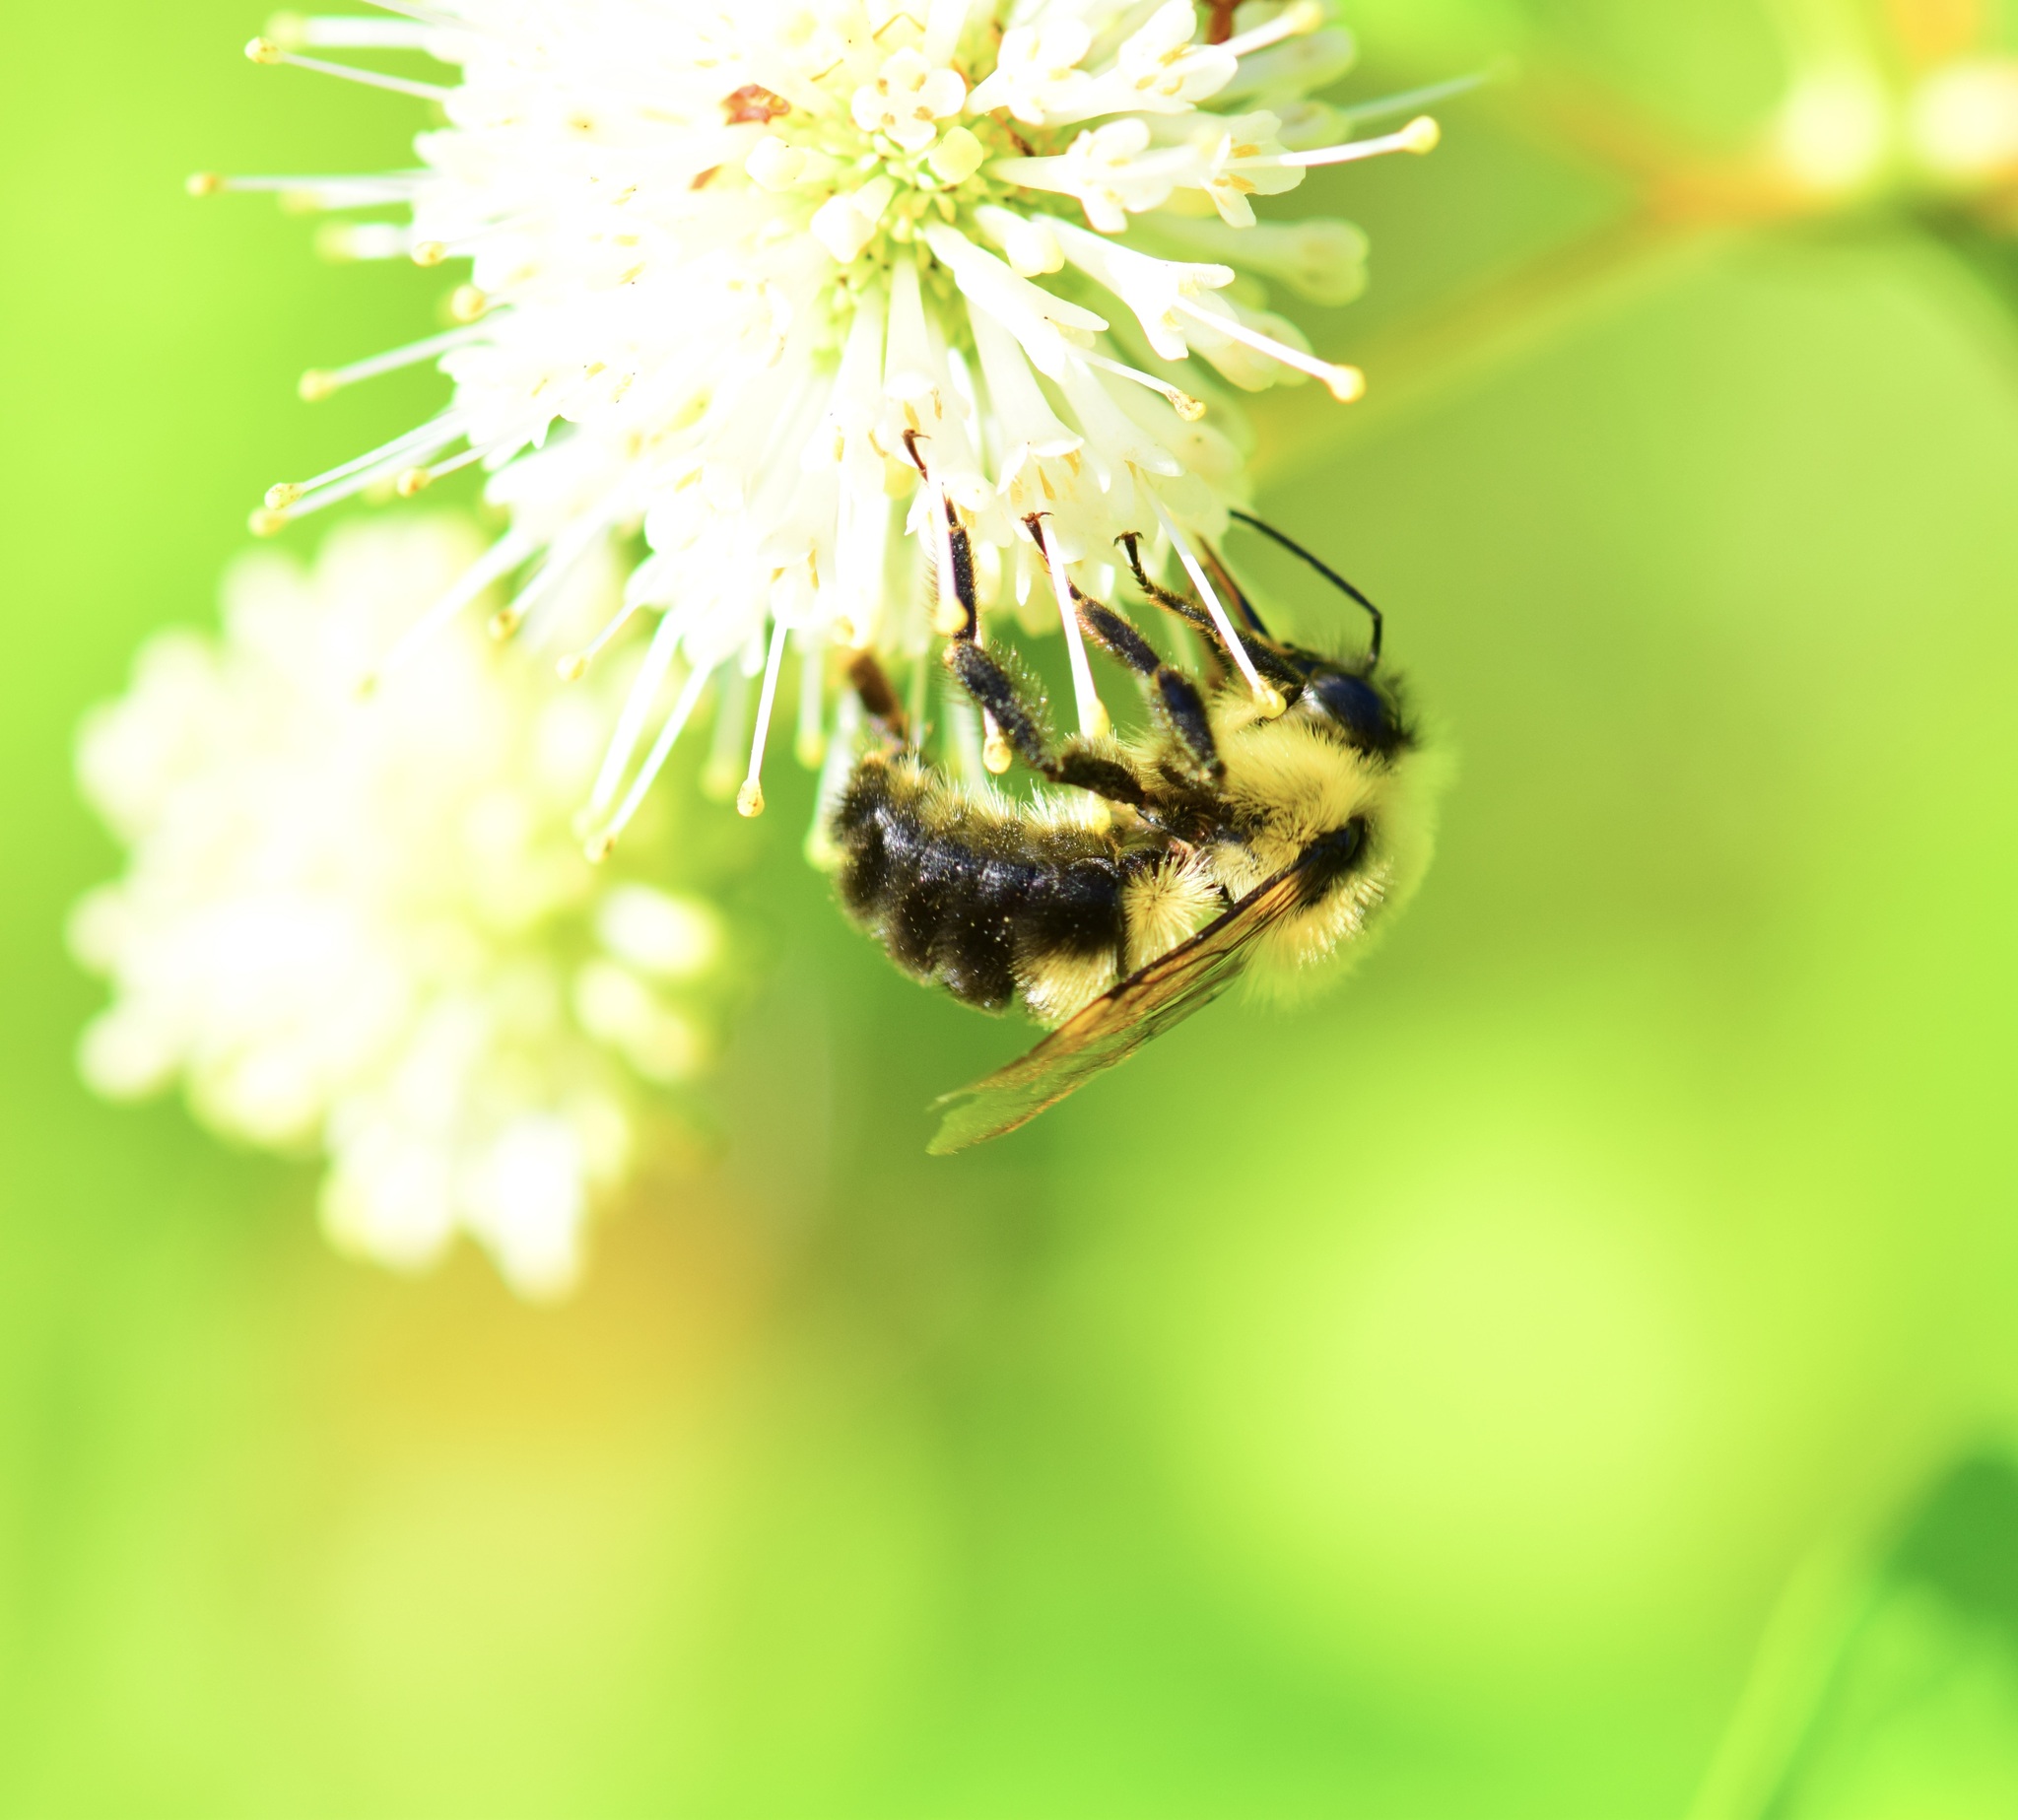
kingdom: Animalia
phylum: Arthropoda
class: Insecta
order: Hymenoptera
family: Apidae
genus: Bombus
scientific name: Bombus bimaculatus
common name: Two-spotted bumble bee
